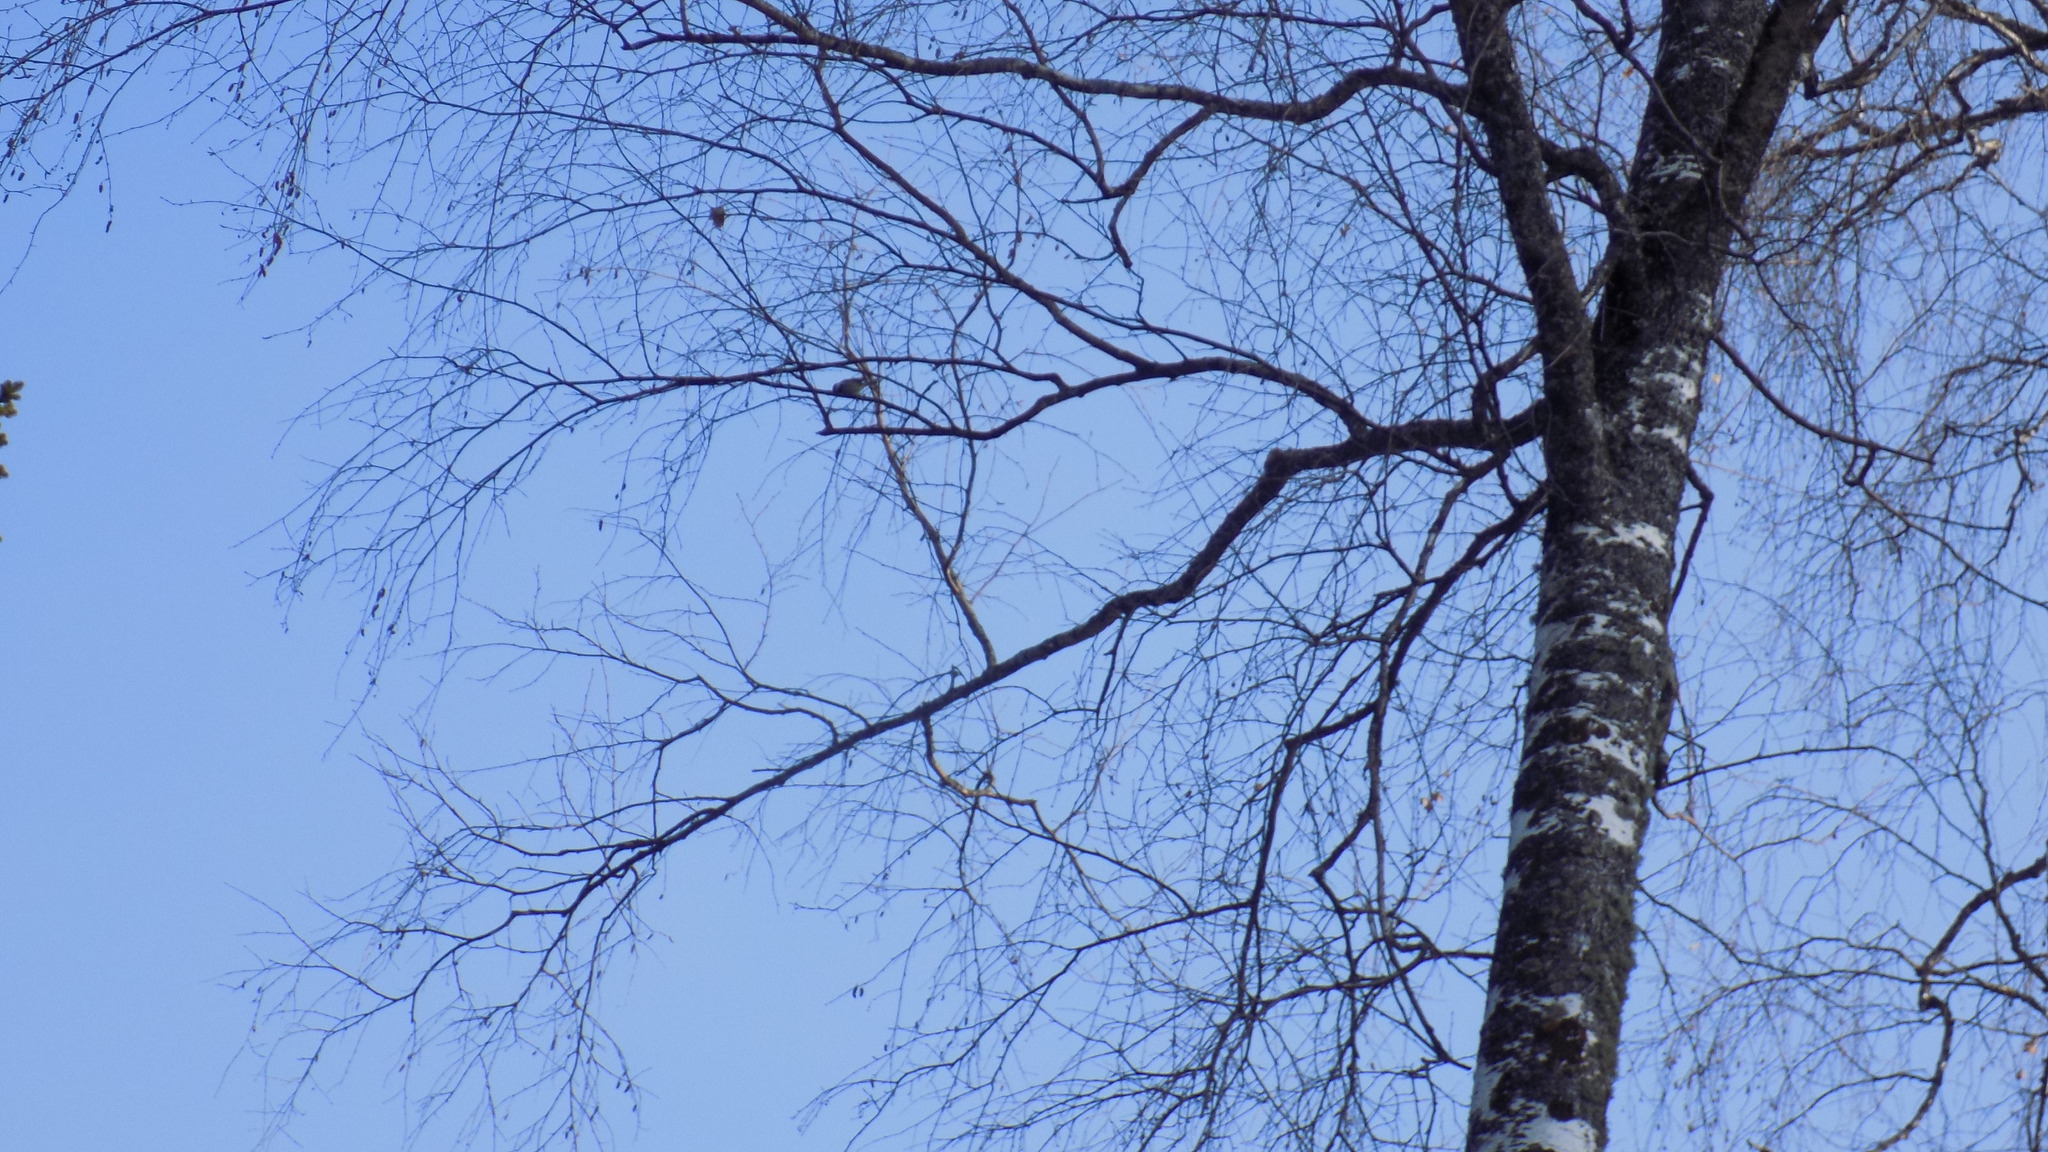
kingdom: Animalia
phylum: Chordata
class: Aves
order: Passeriformes
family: Paridae
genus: Parus
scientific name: Parus major
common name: Great tit
